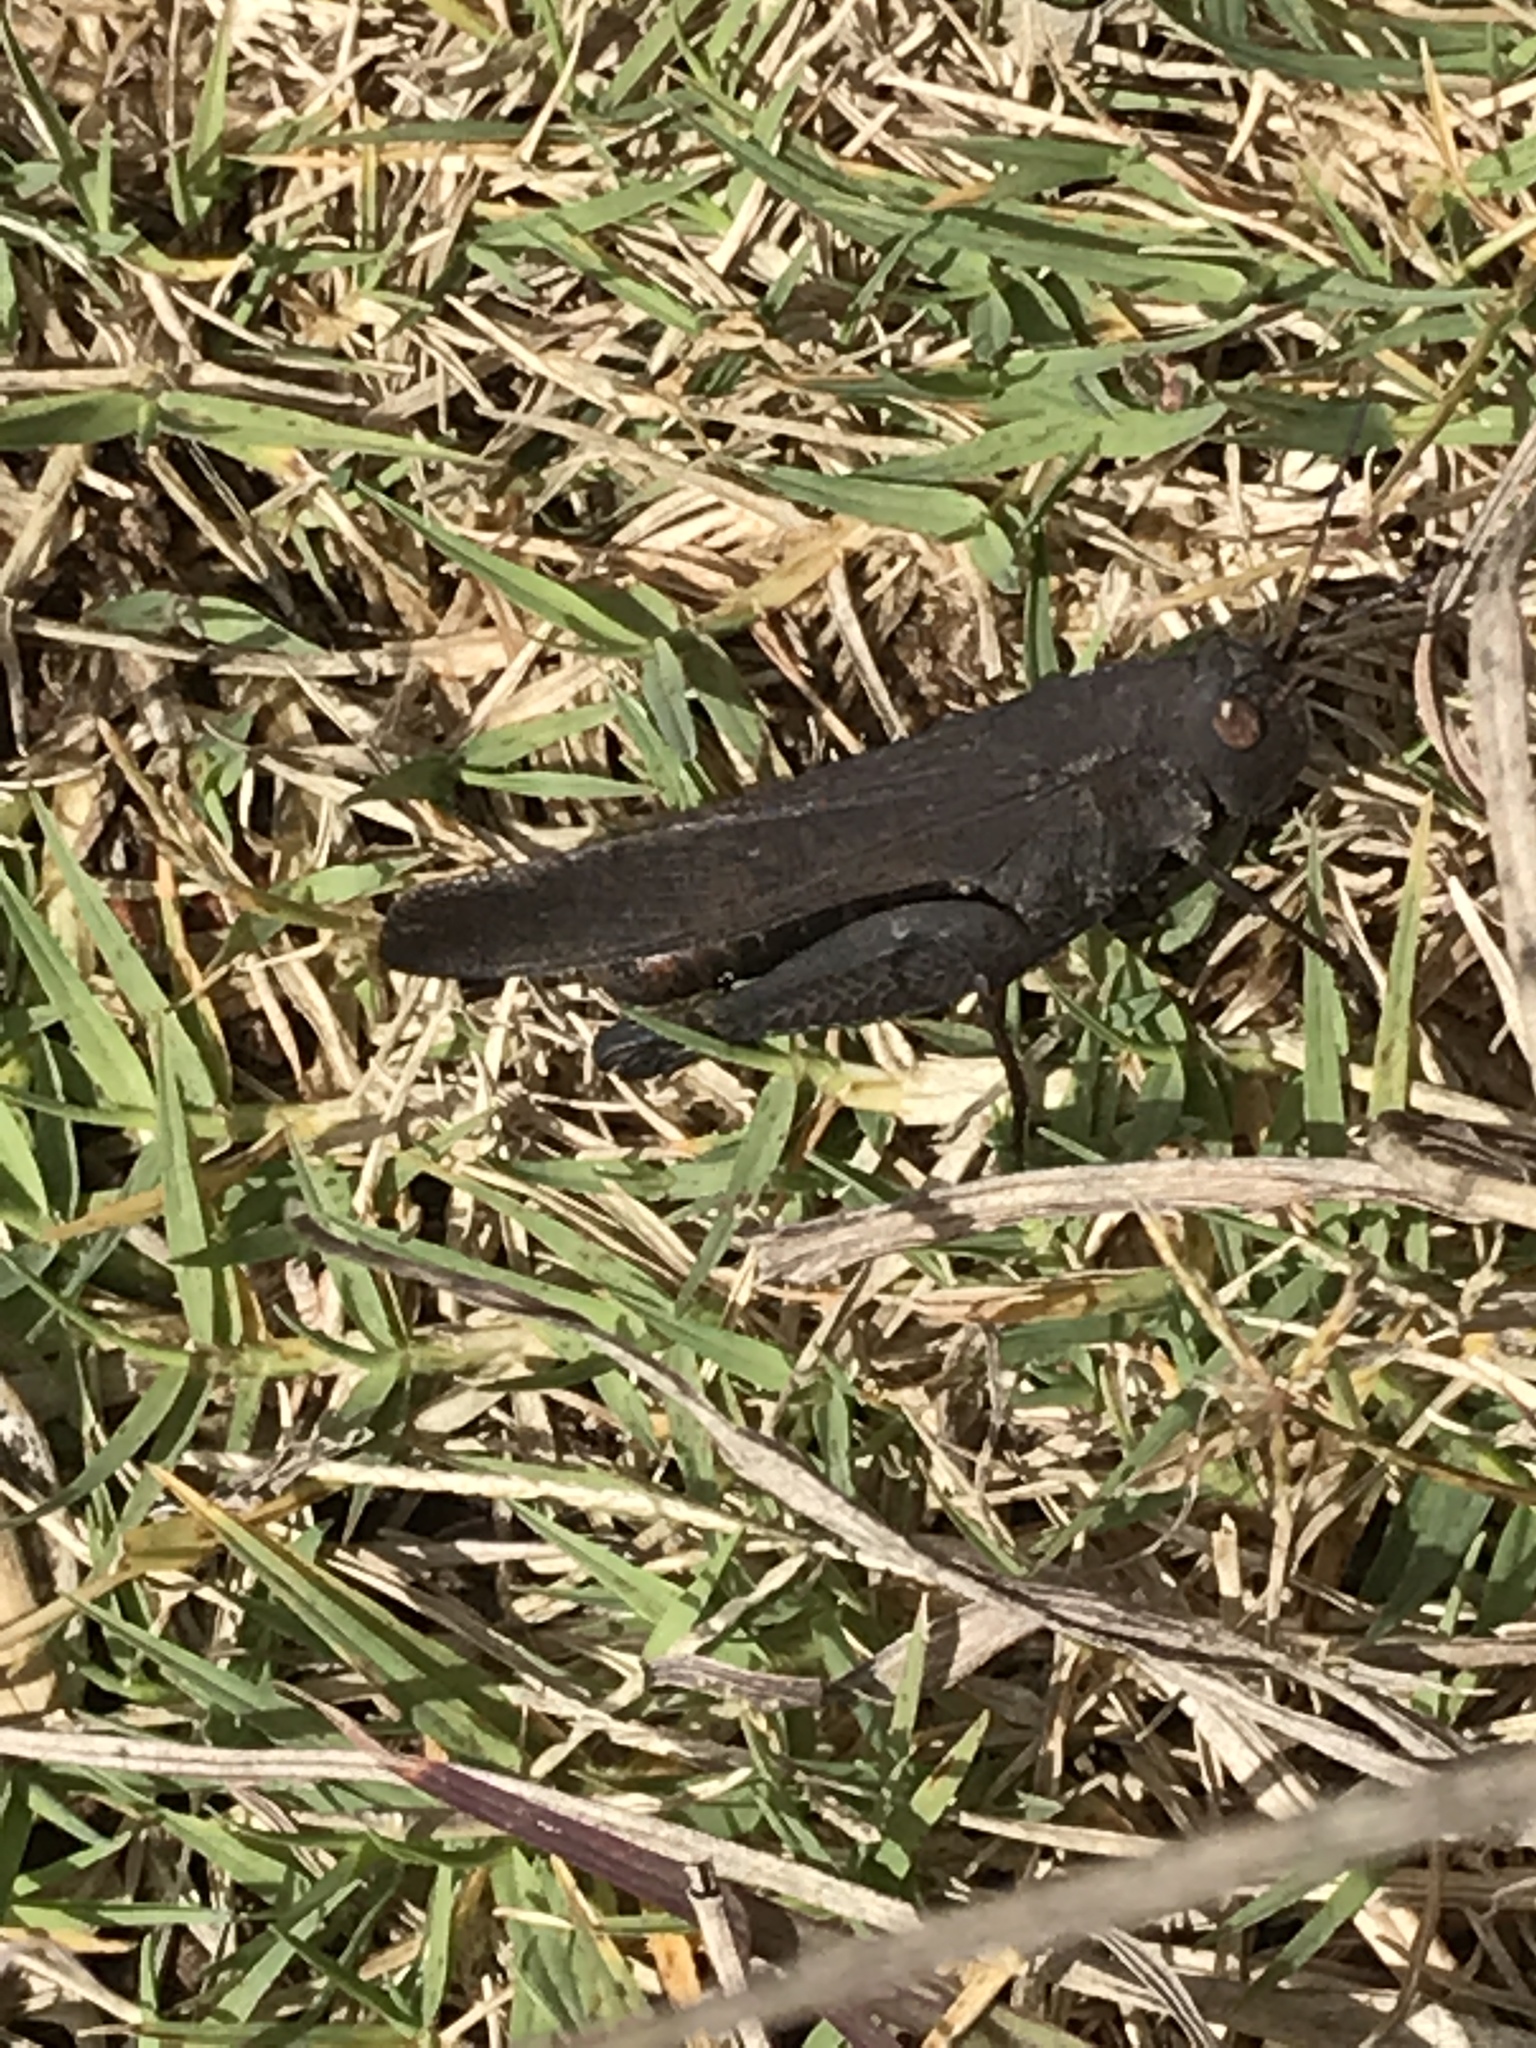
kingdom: Animalia
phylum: Arthropoda
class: Insecta
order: Orthoptera
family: Acrididae
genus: Arphia
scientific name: Arphia pseudo-nietana
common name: Red-winged grasshopper
